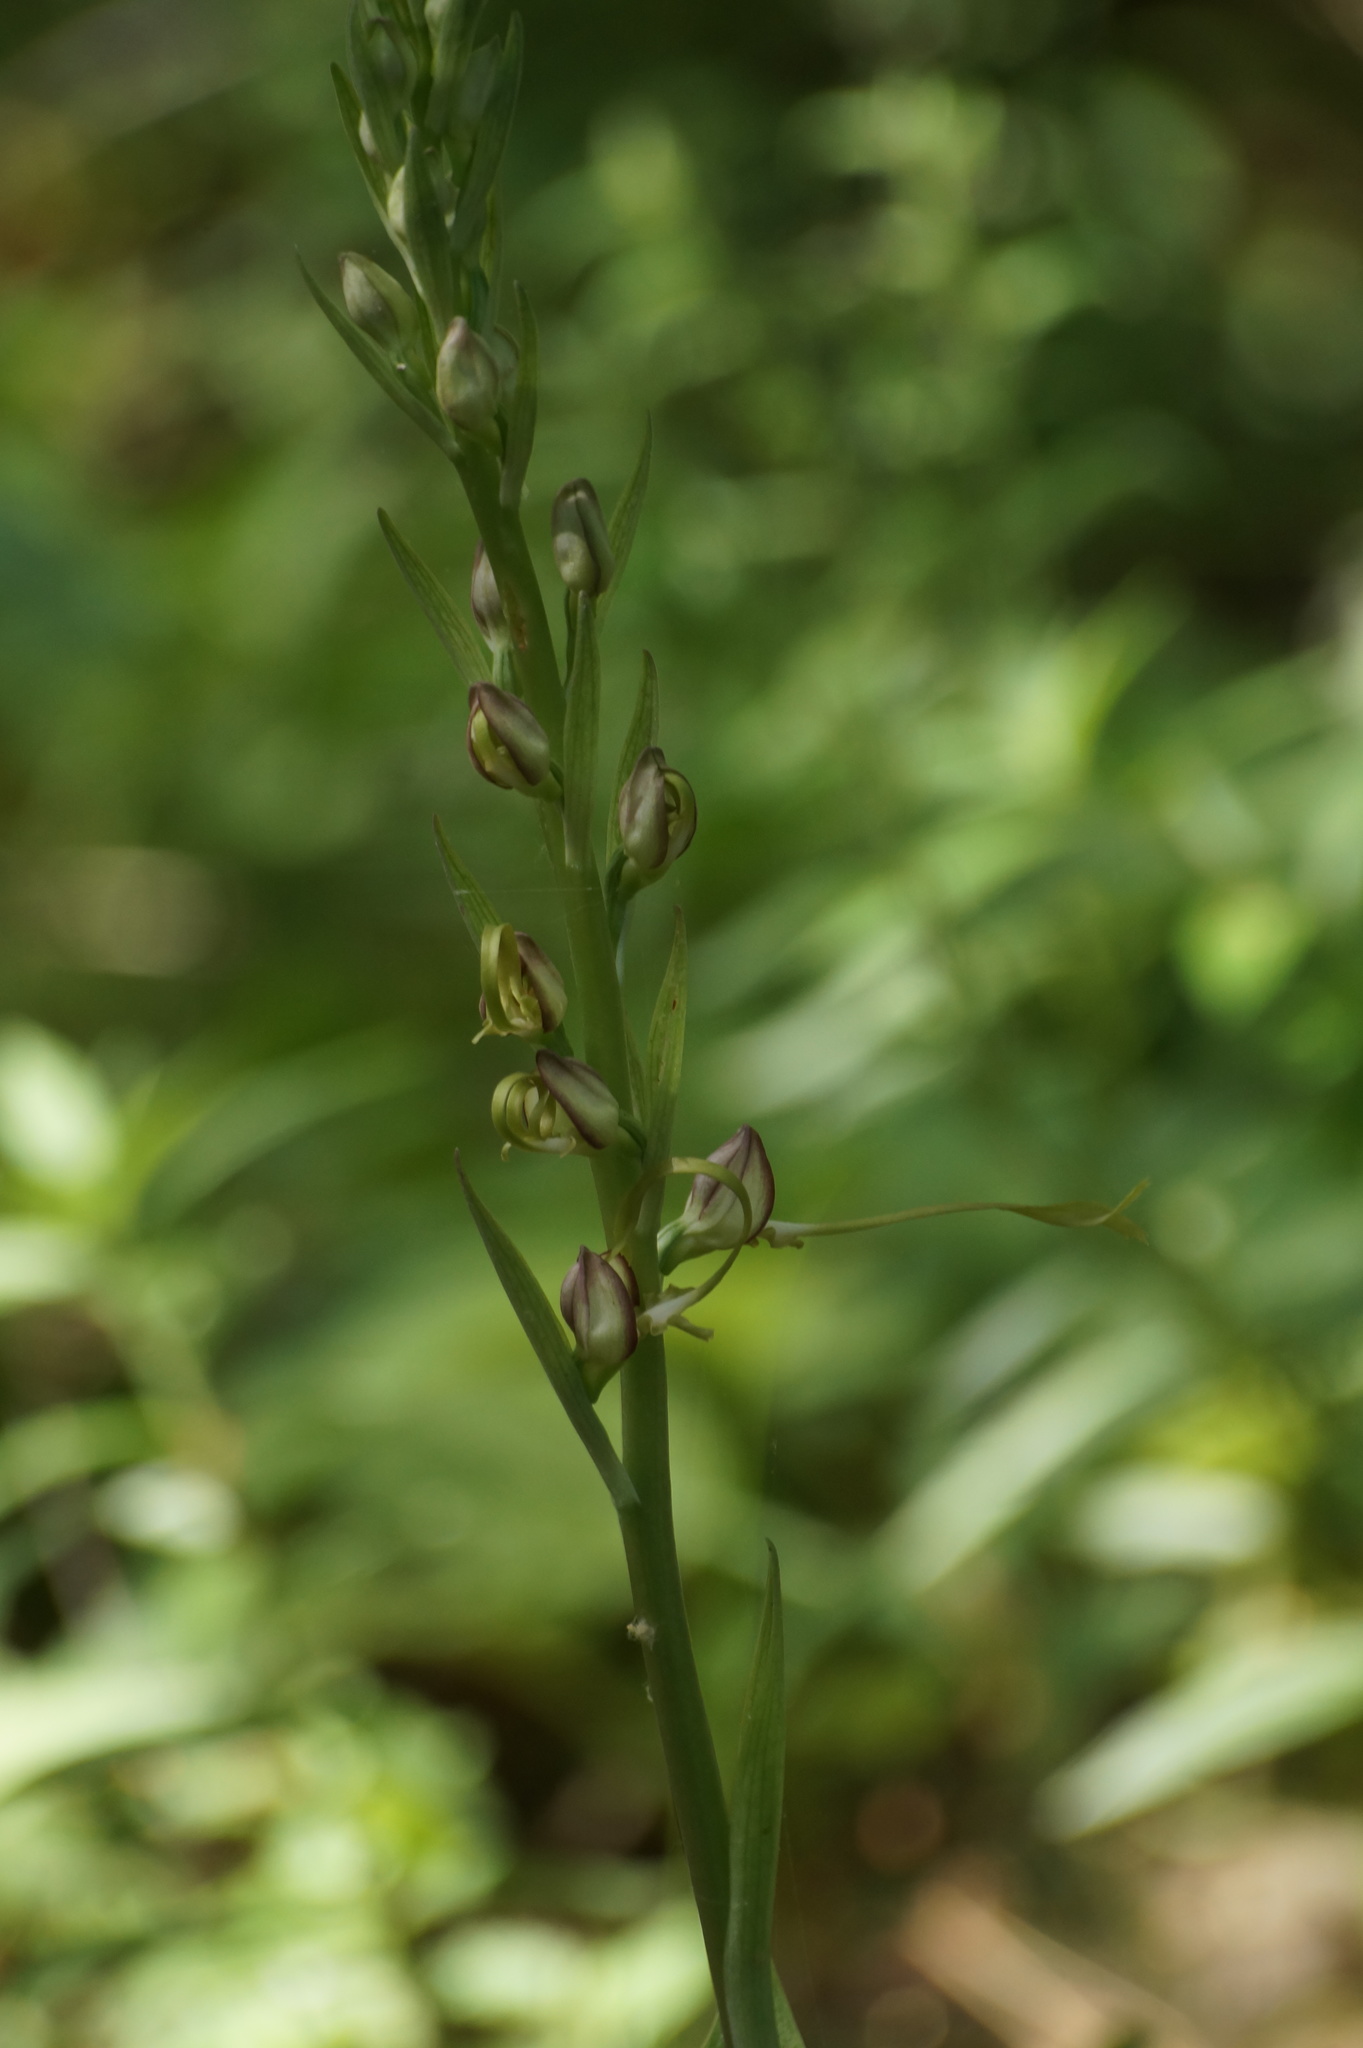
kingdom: Plantae
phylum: Tracheophyta
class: Liliopsida
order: Asparagales
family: Orchidaceae
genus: Himantoglossum
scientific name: Himantoglossum caprinum
